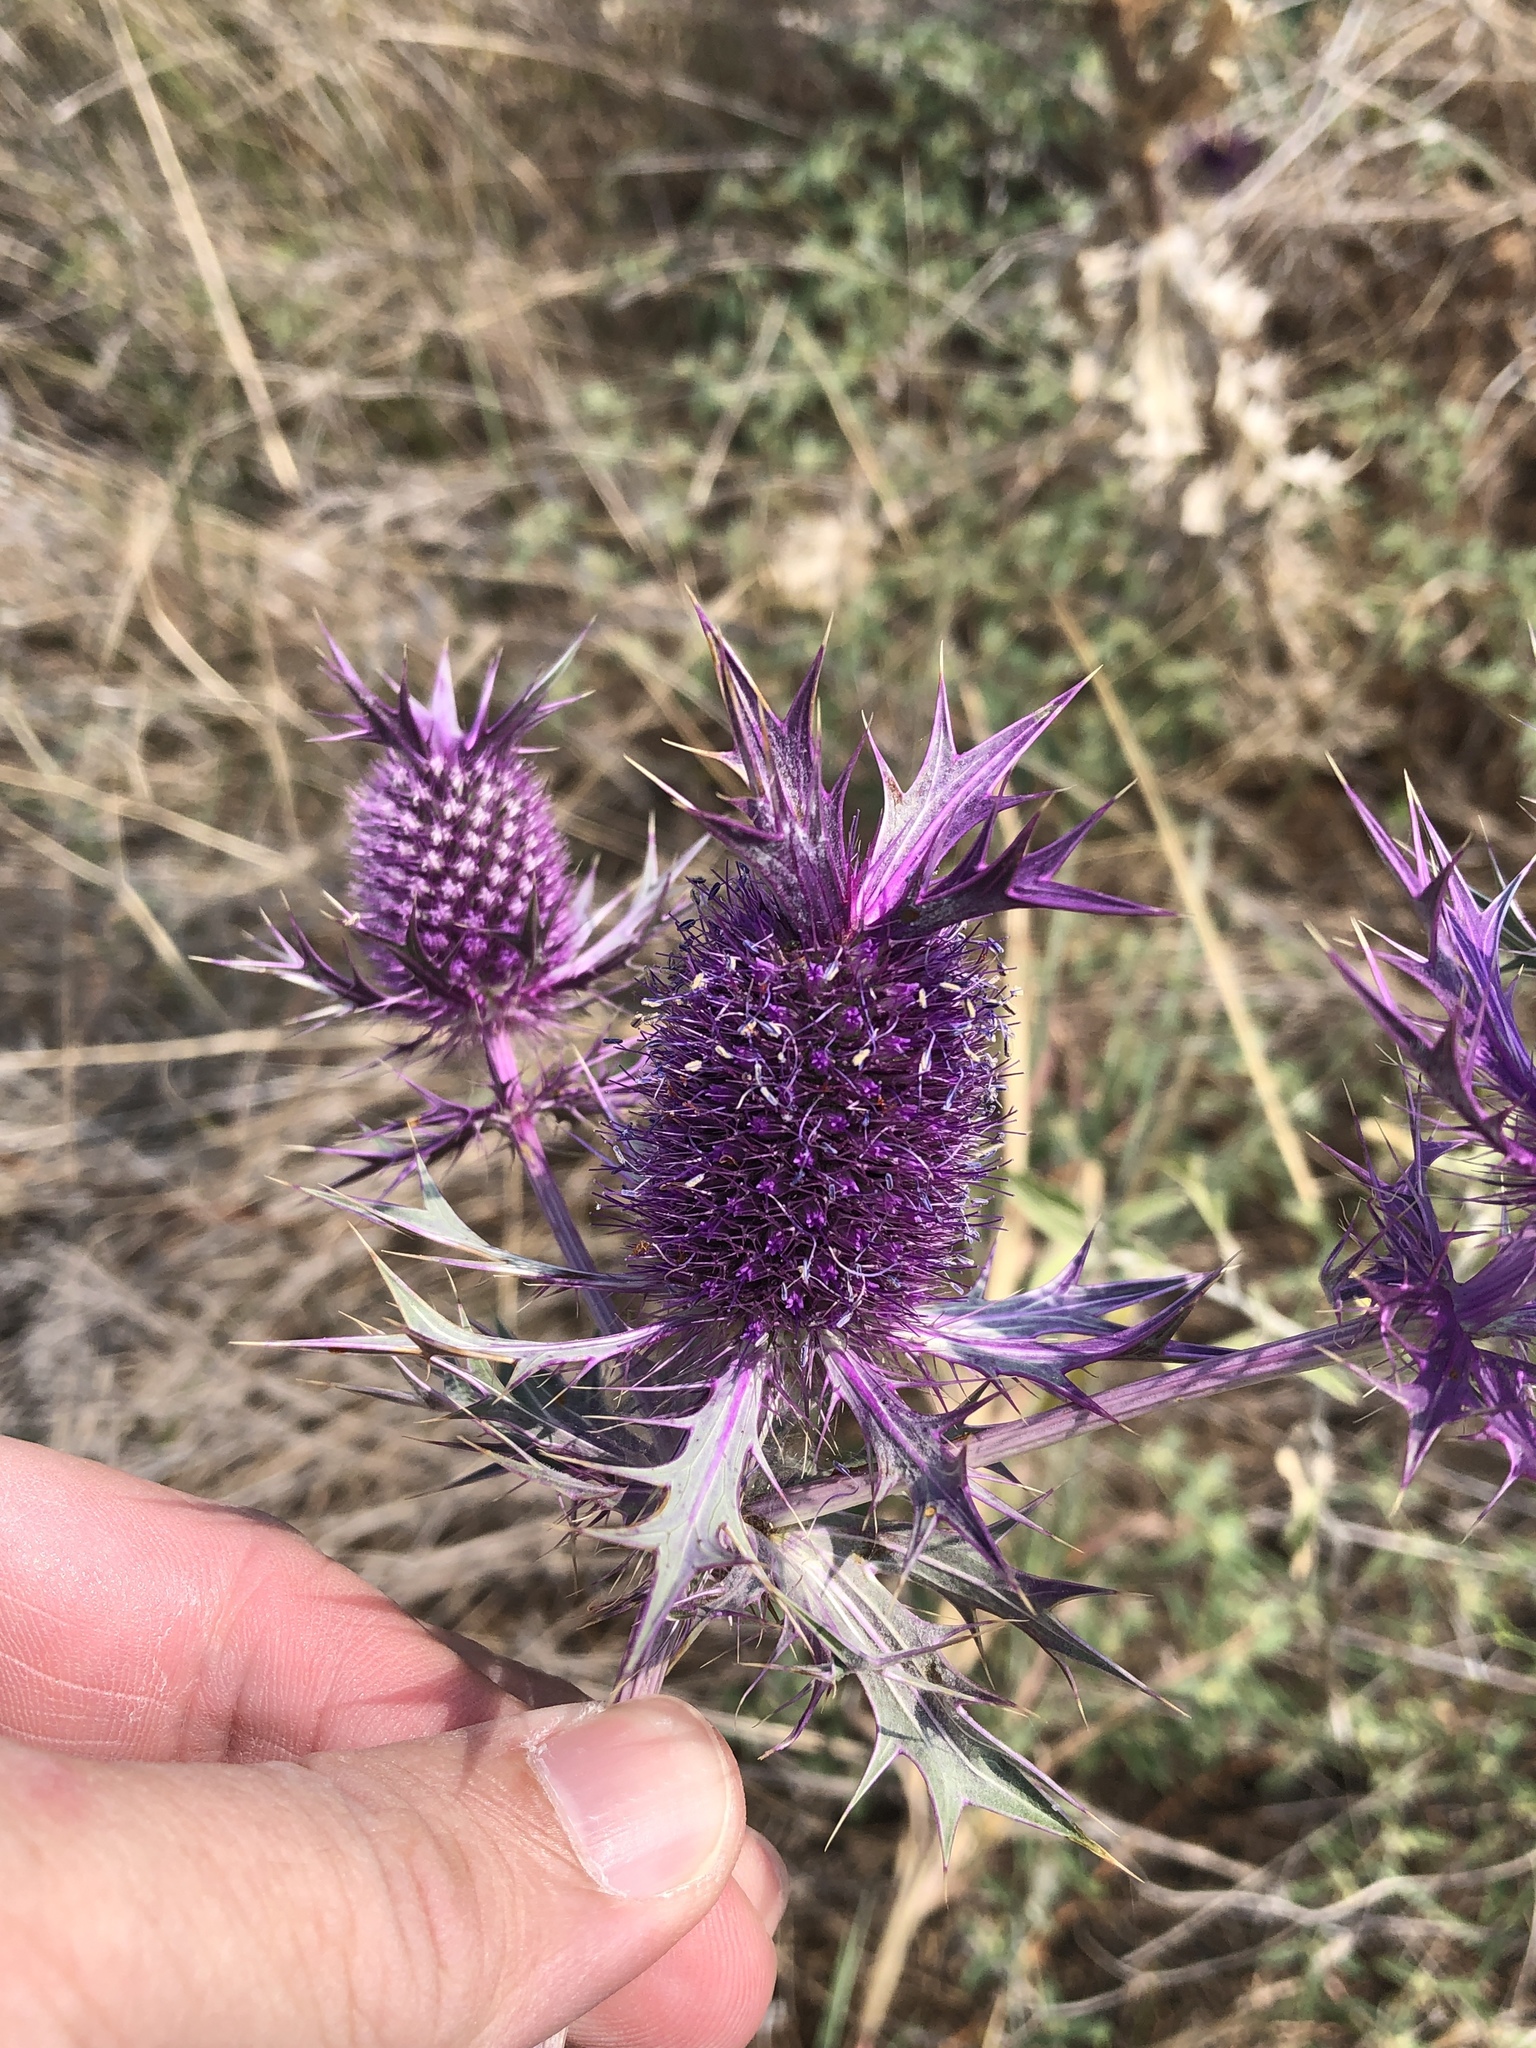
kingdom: Plantae
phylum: Tracheophyta
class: Magnoliopsida
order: Apiales
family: Apiaceae
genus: Eryngium
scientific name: Eryngium leavenworthii
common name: Leavenworth's eryngo
